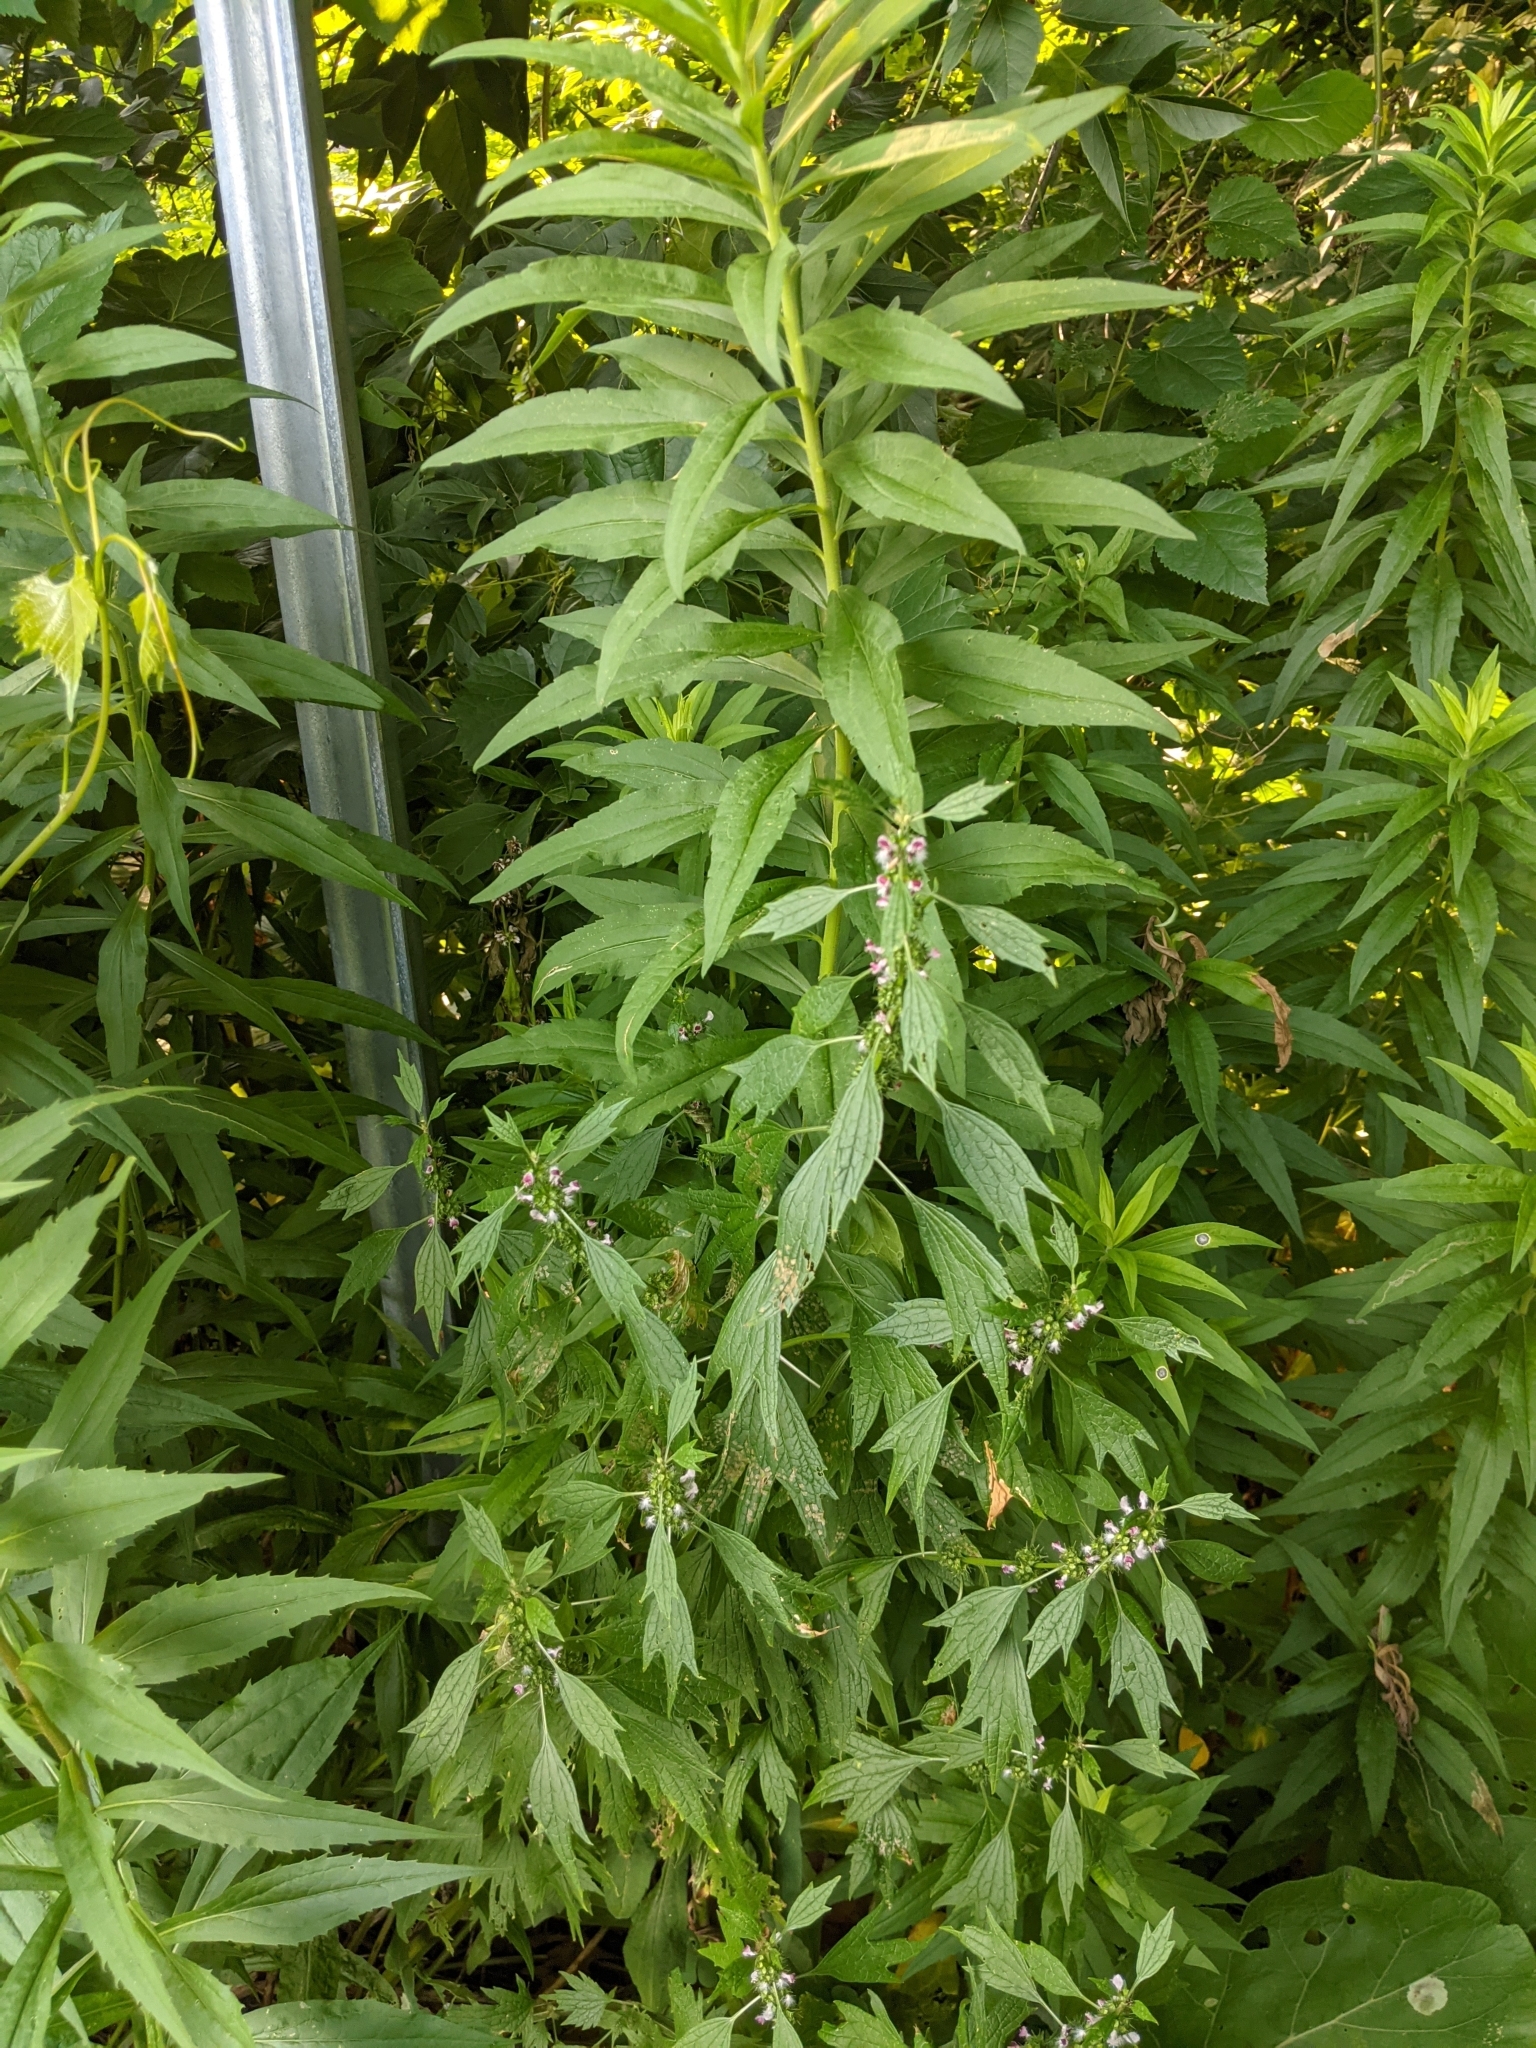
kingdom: Plantae
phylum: Tracheophyta
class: Magnoliopsida
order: Lamiales
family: Lamiaceae
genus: Leonurus
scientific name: Leonurus cardiaca
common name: Motherwort
